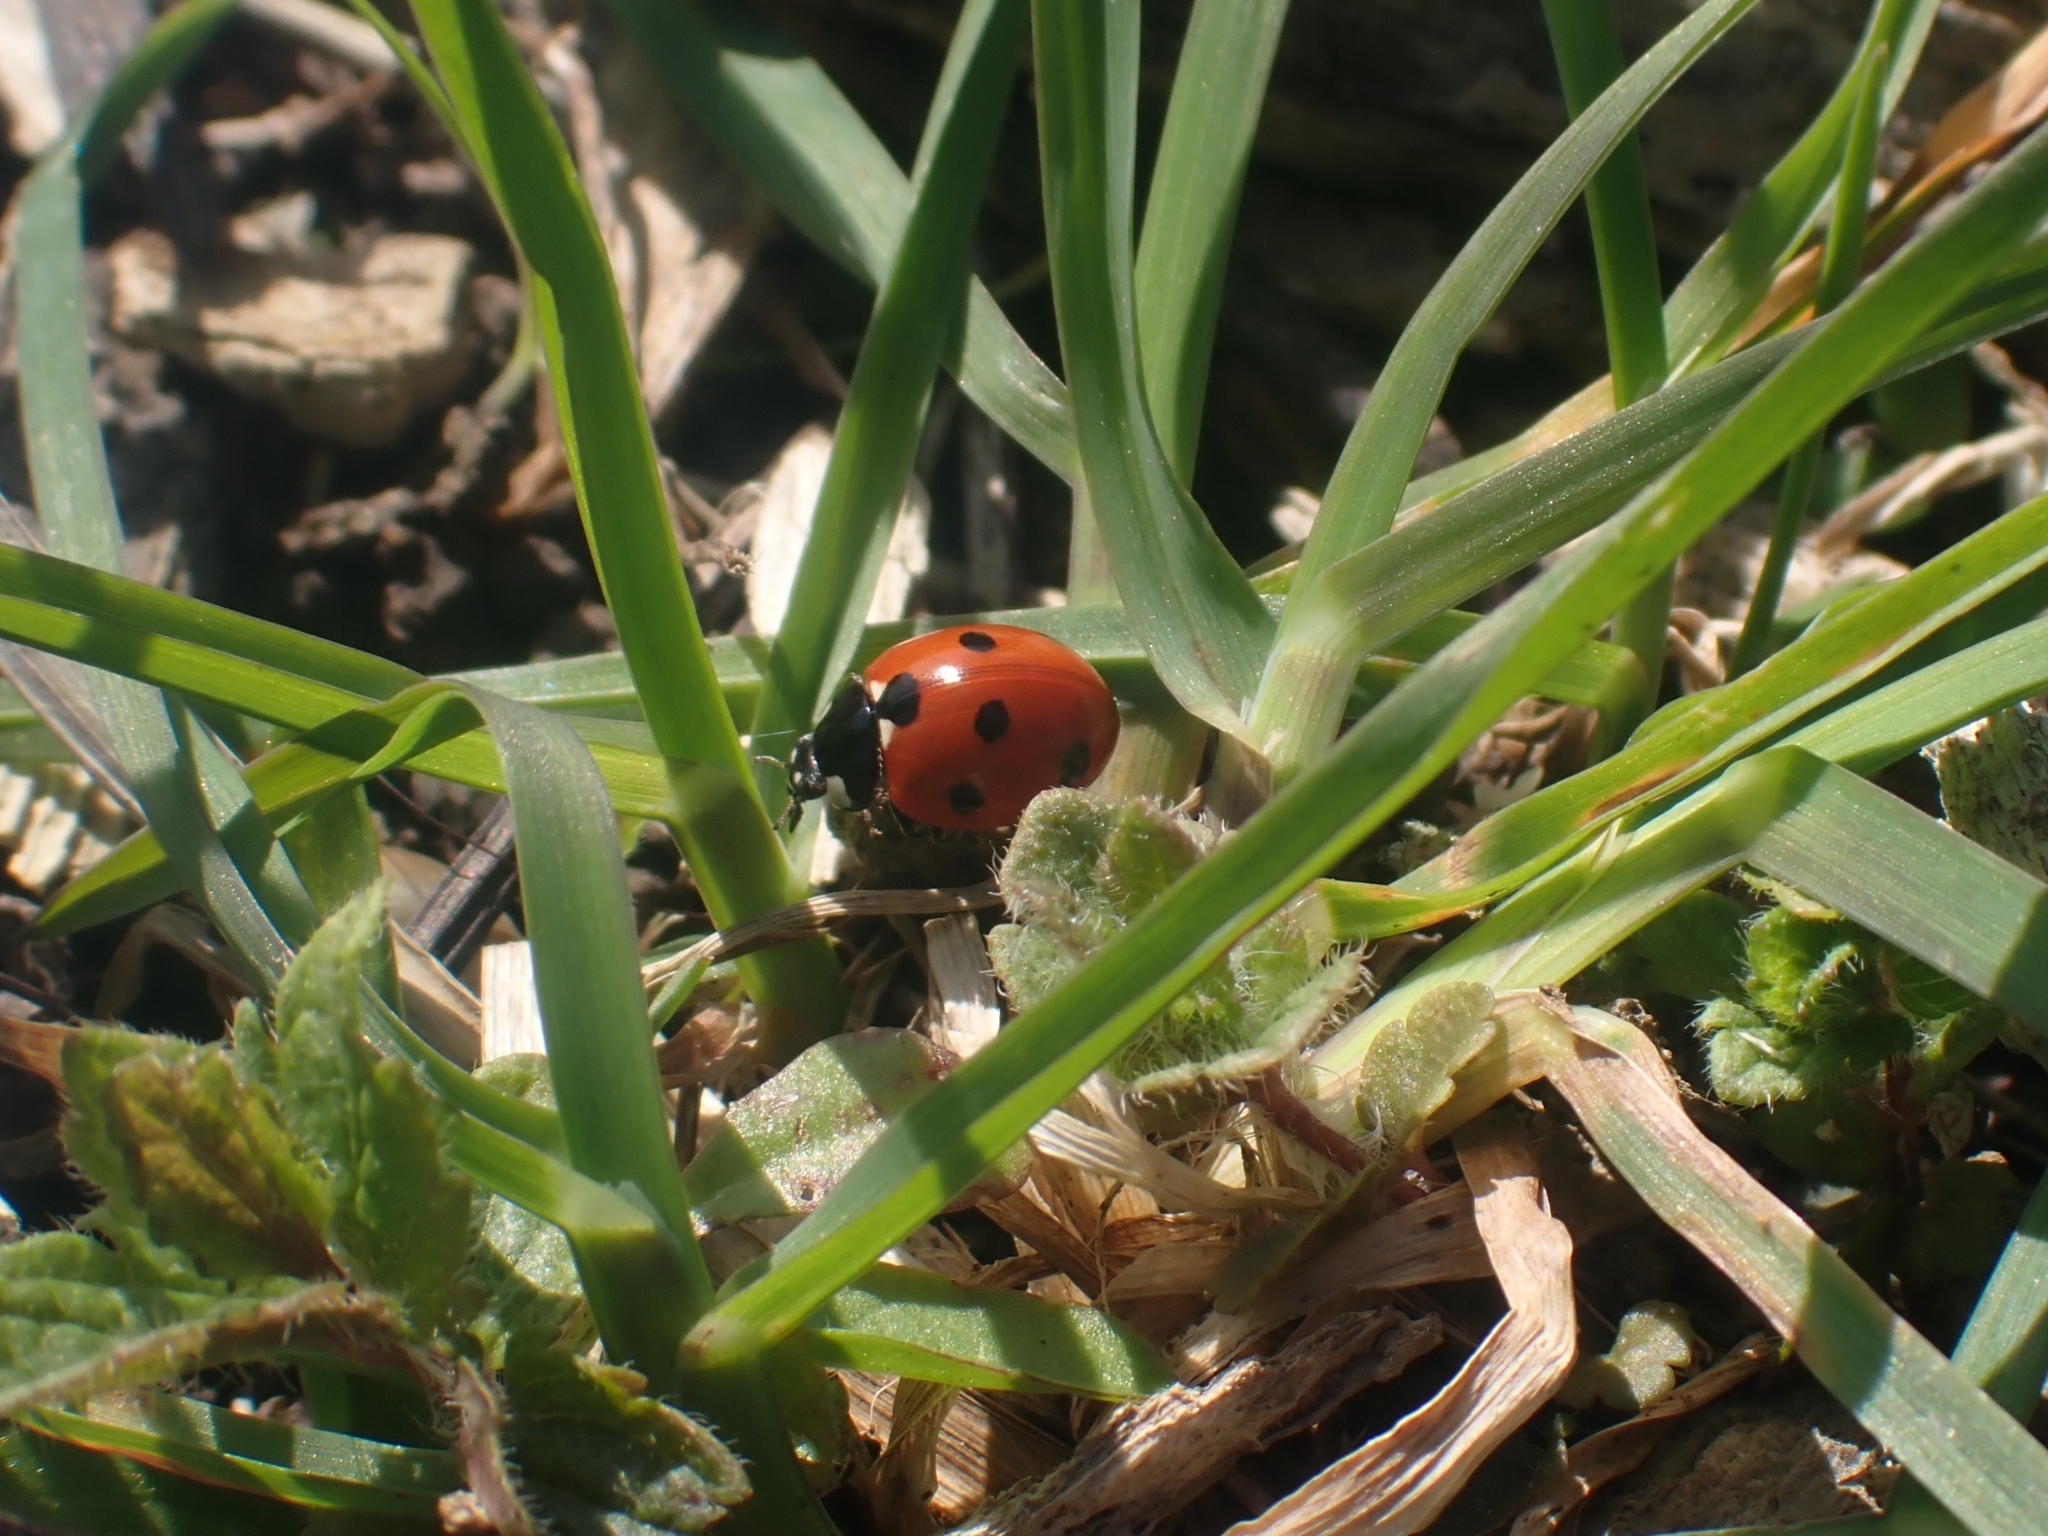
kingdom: Animalia
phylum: Arthropoda
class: Insecta
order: Coleoptera
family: Coccinellidae
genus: Coccinella
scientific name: Coccinella septempunctata
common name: Sevenspotted lady beetle
